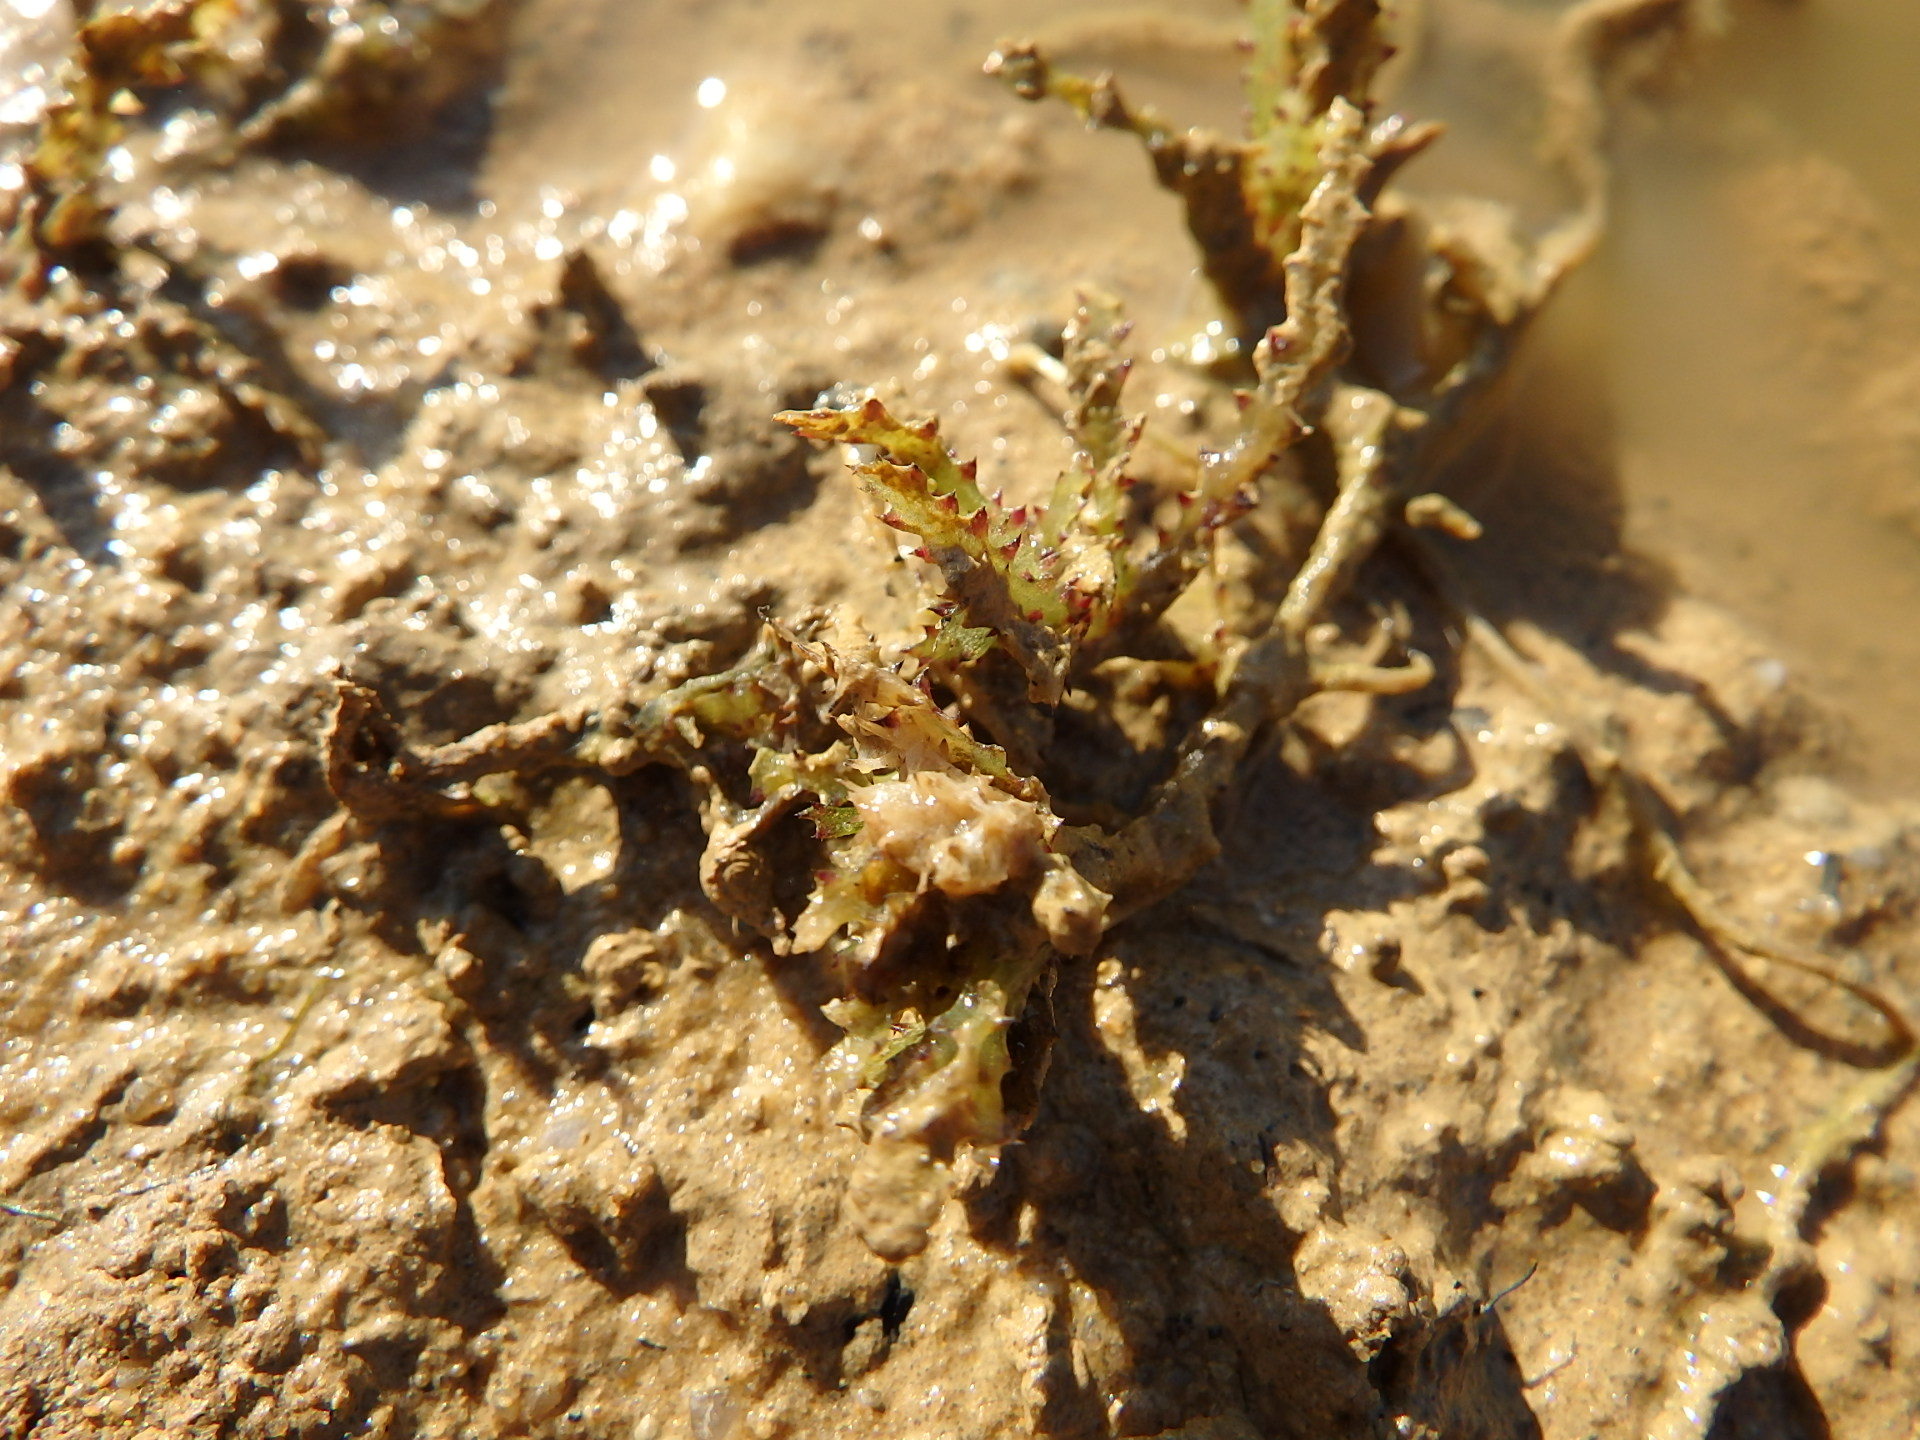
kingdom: Plantae
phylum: Tracheophyta
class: Liliopsida
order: Alismatales
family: Hydrocharitaceae
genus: Najas
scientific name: Najas marina
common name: Holly-leaved naiad
